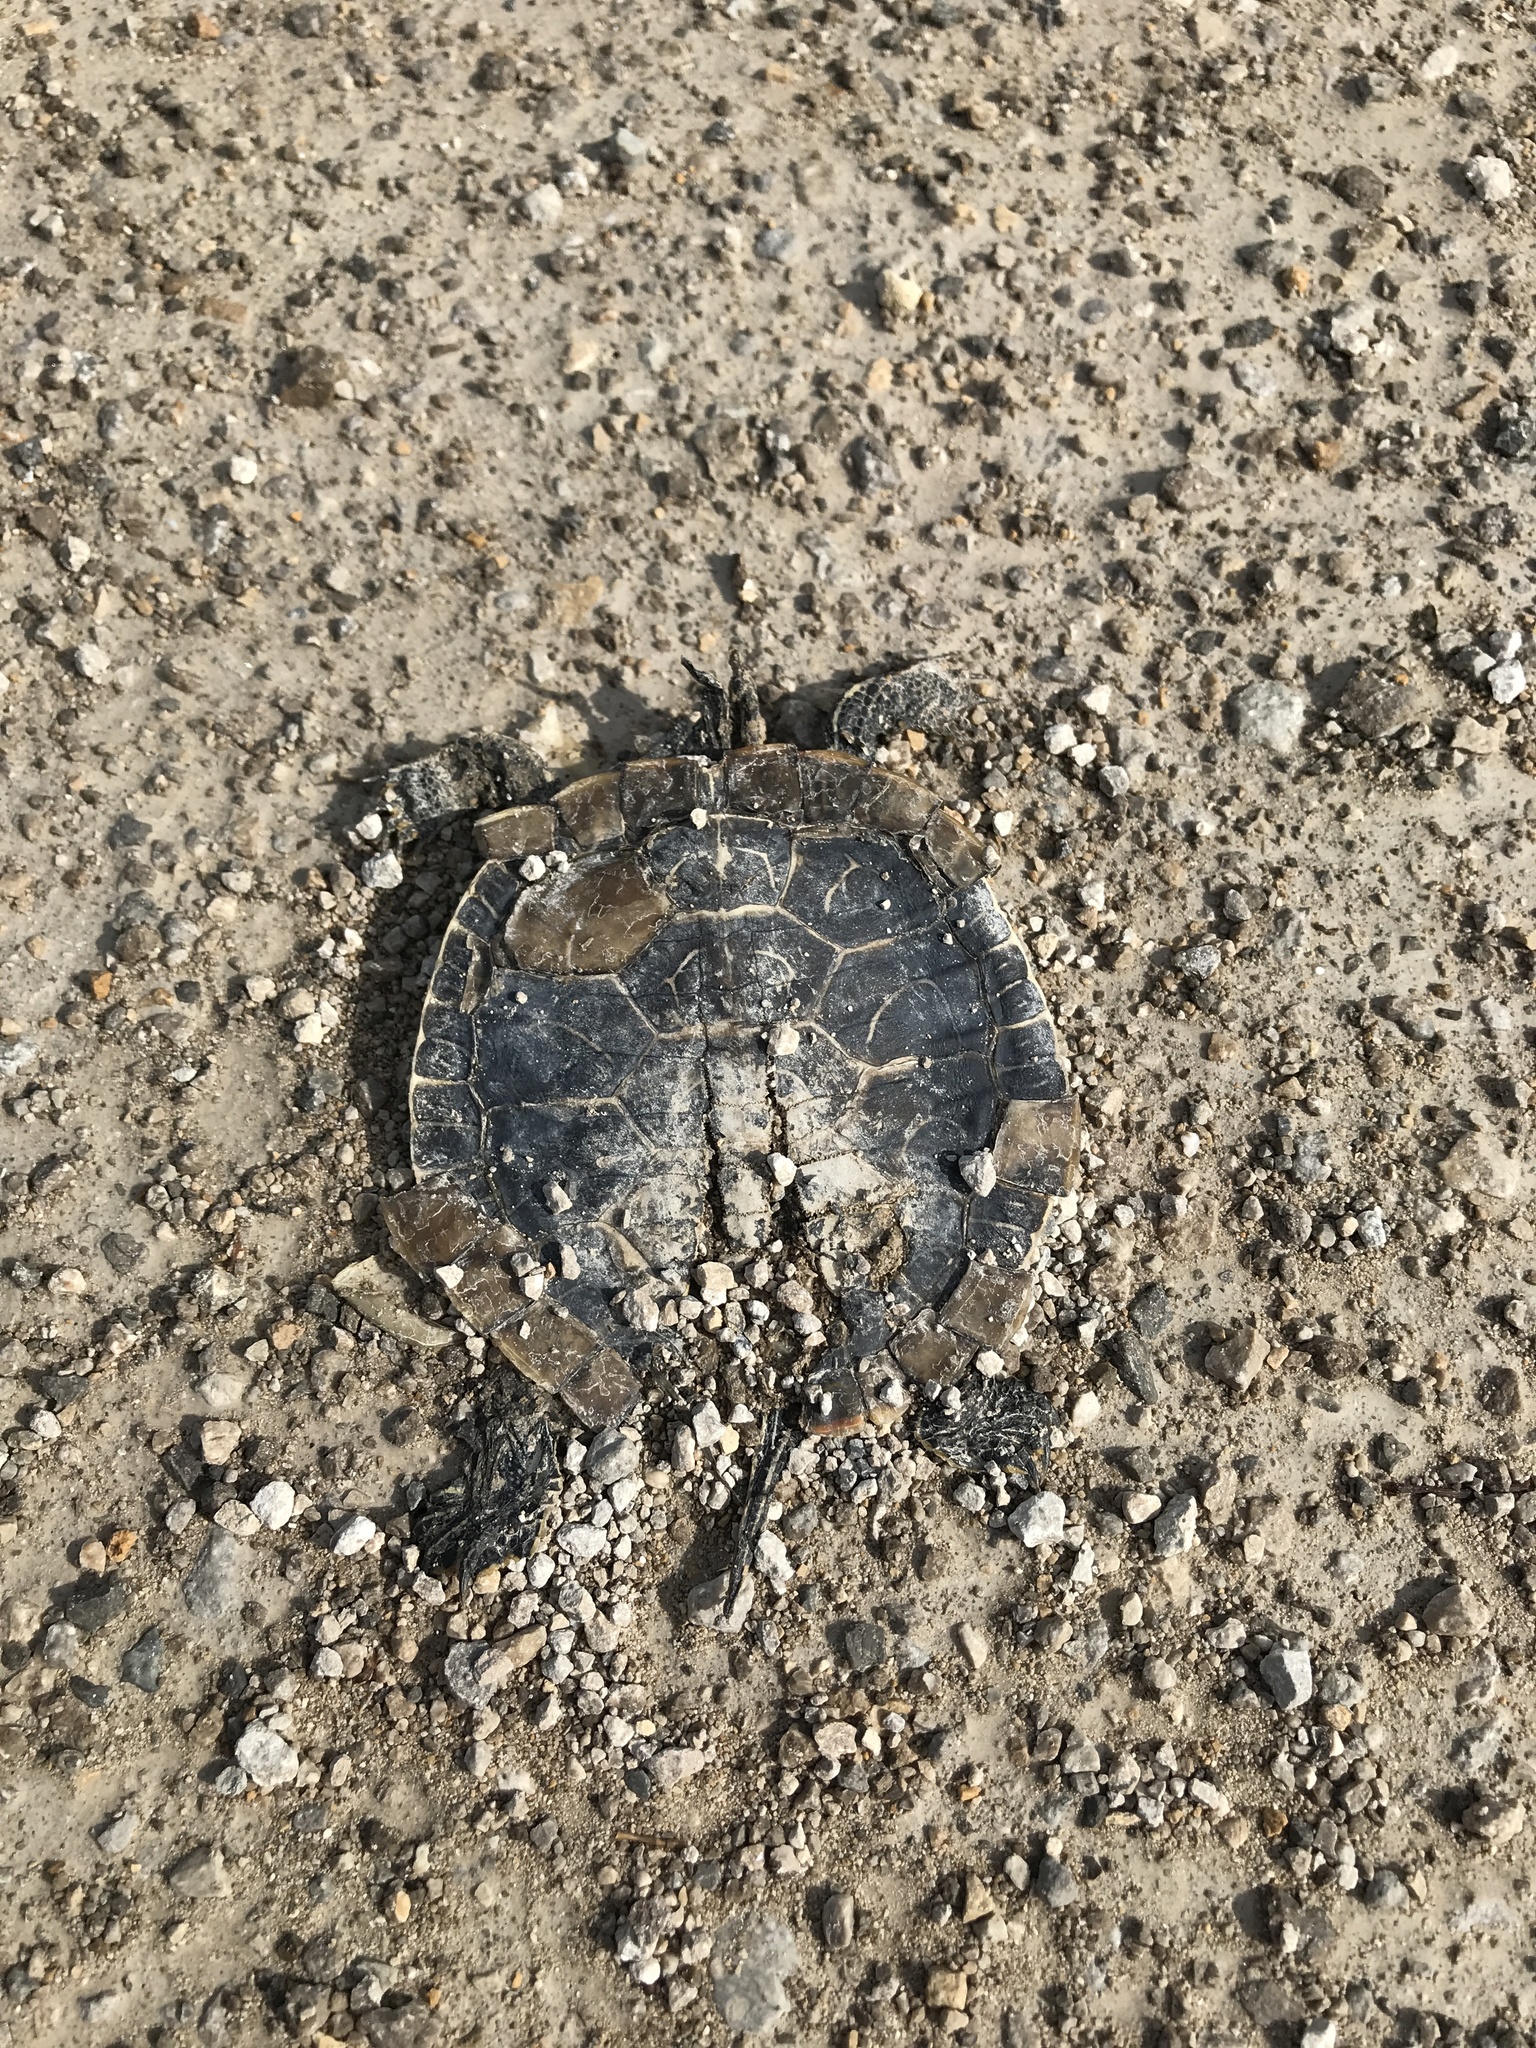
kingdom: Animalia
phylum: Chordata
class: Testudines
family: Emydidae
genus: Chrysemys
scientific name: Chrysemys picta
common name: Painted turtle
